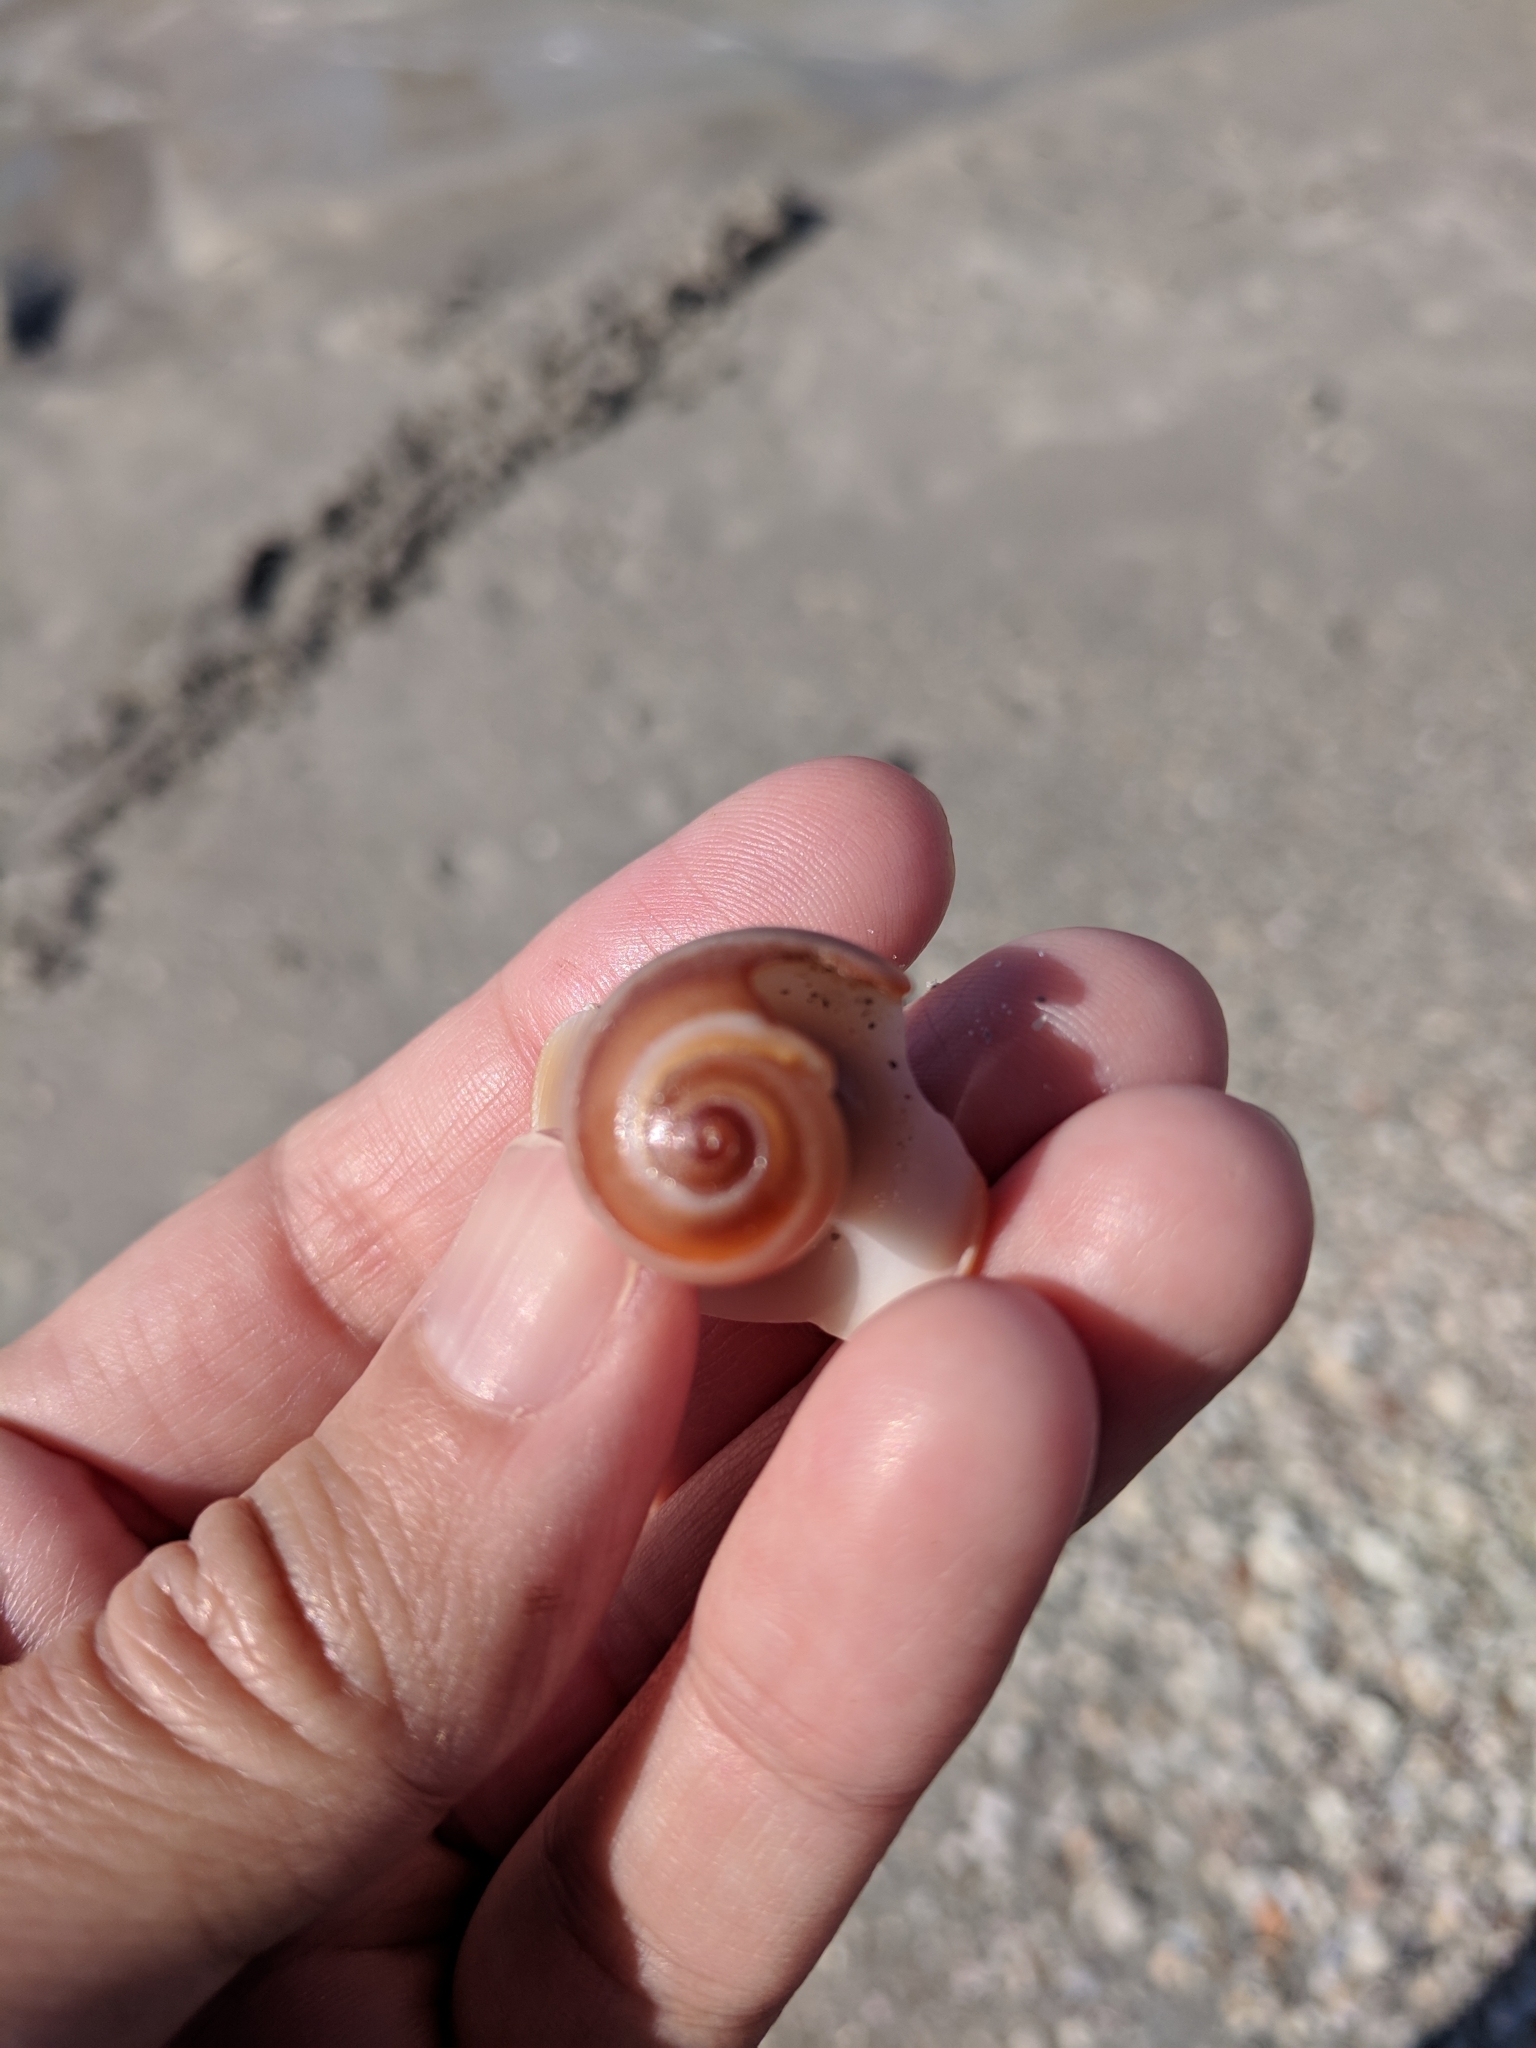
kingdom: Animalia
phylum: Mollusca
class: Gastropoda
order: Littorinimorpha
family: Naticidae
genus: Neverita
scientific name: Neverita
